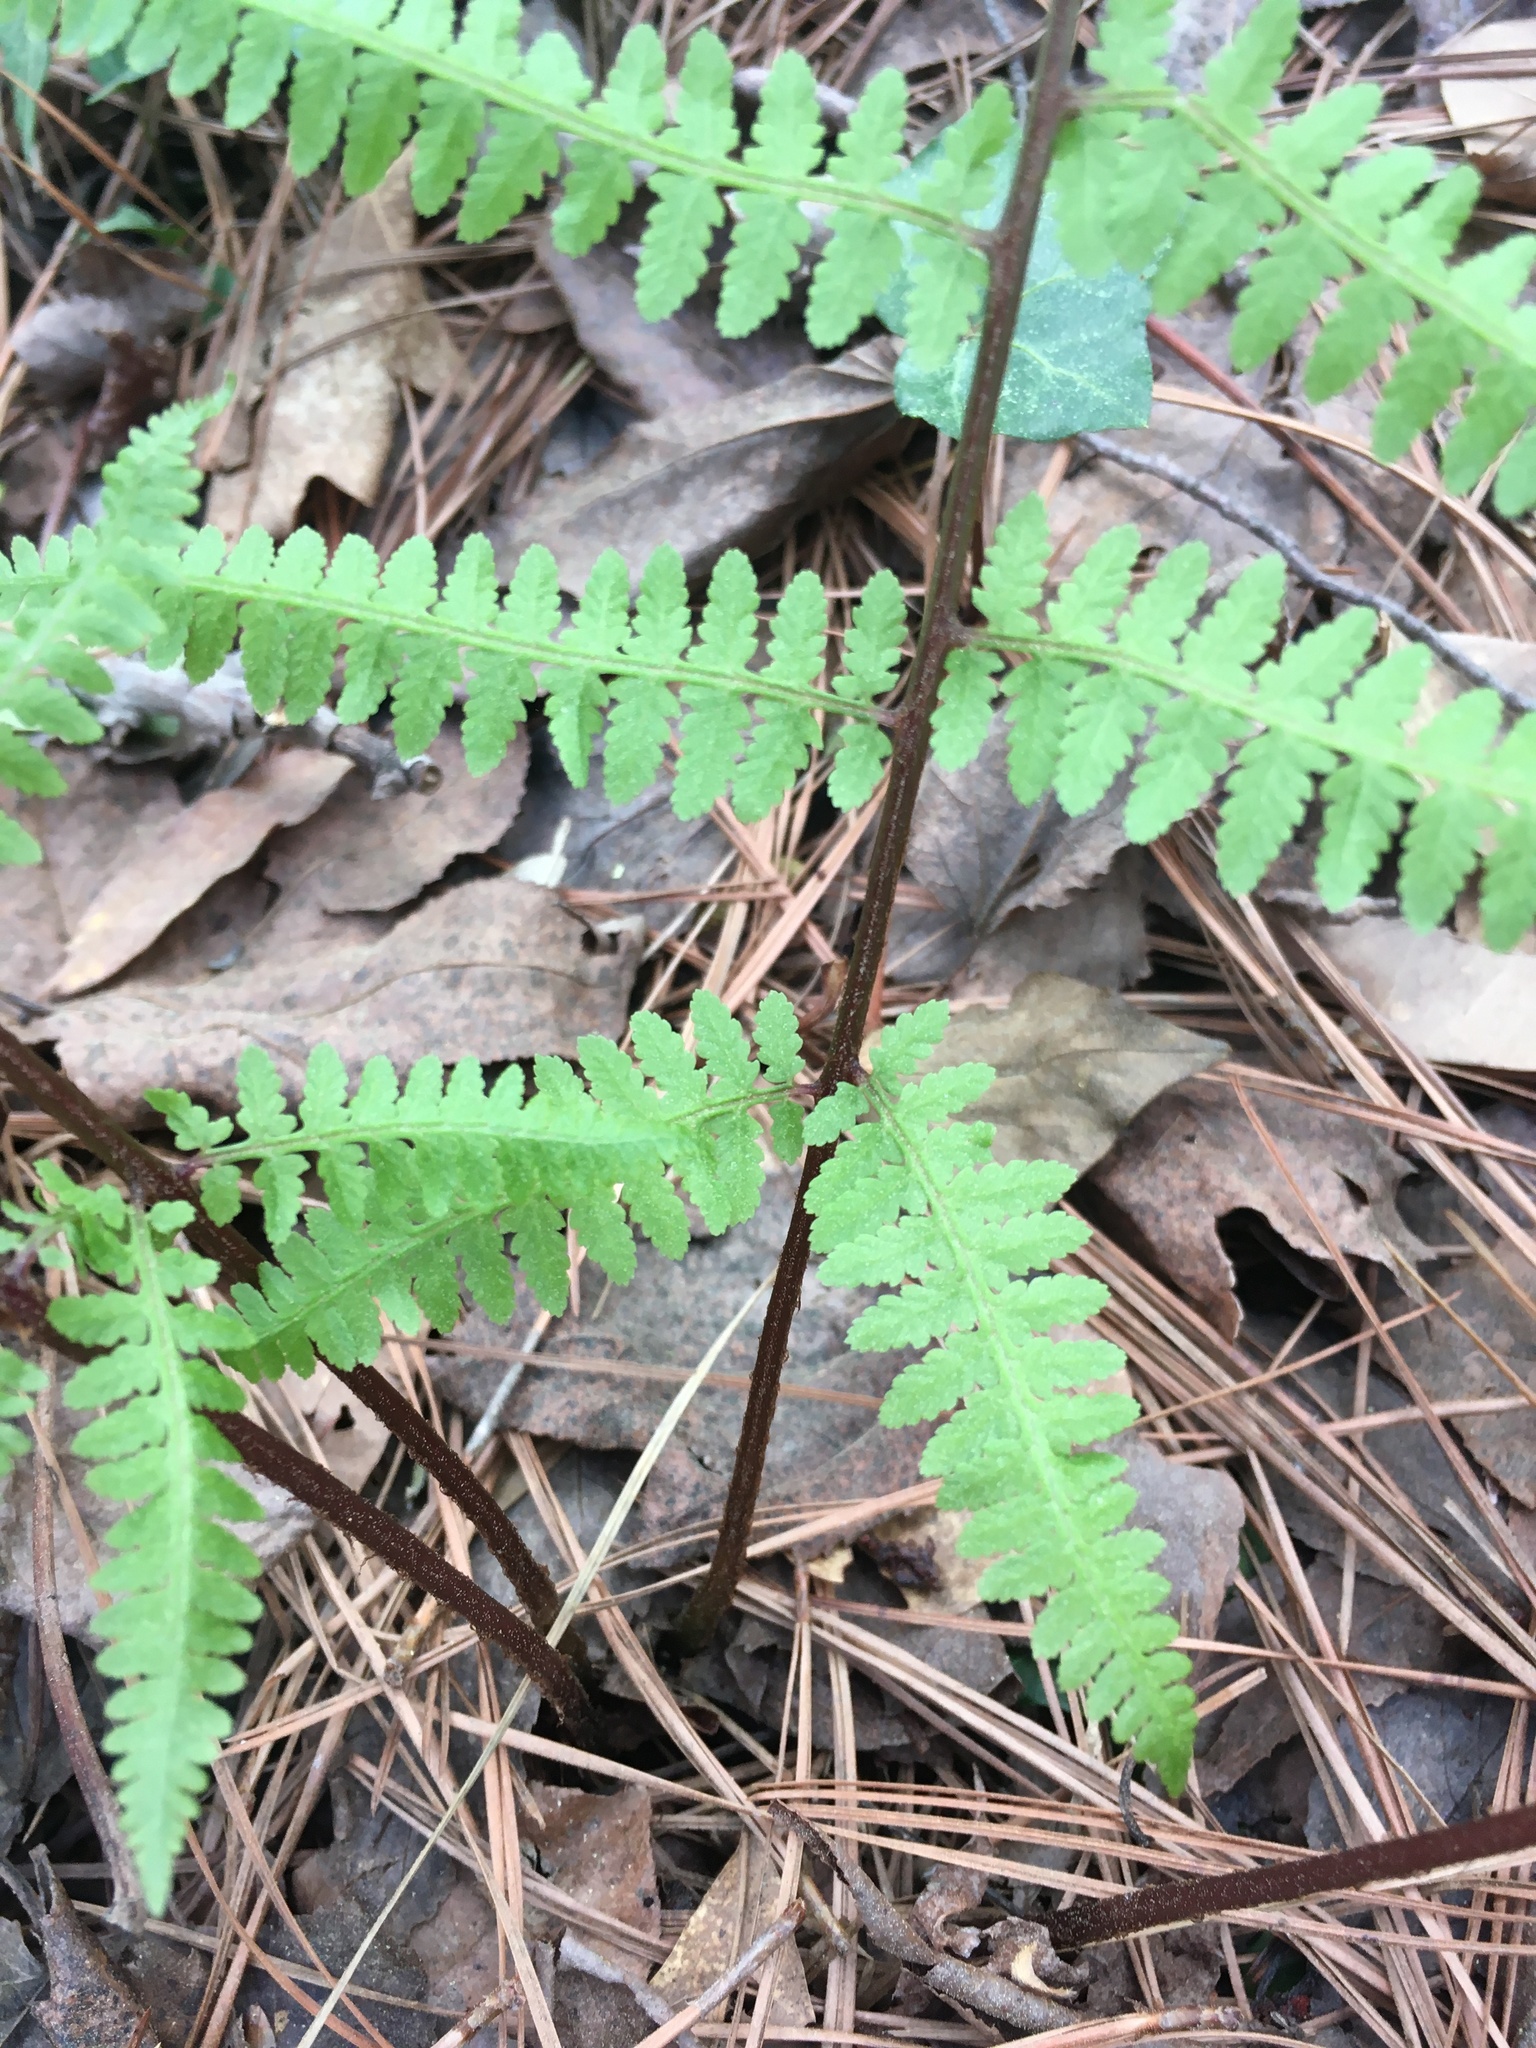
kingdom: Plantae
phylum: Tracheophyta
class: Polypodiopsida
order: Polypodiales
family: Athyriaceae
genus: Athyrium
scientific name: Athyrium asplenioides
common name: Southern lady fern
